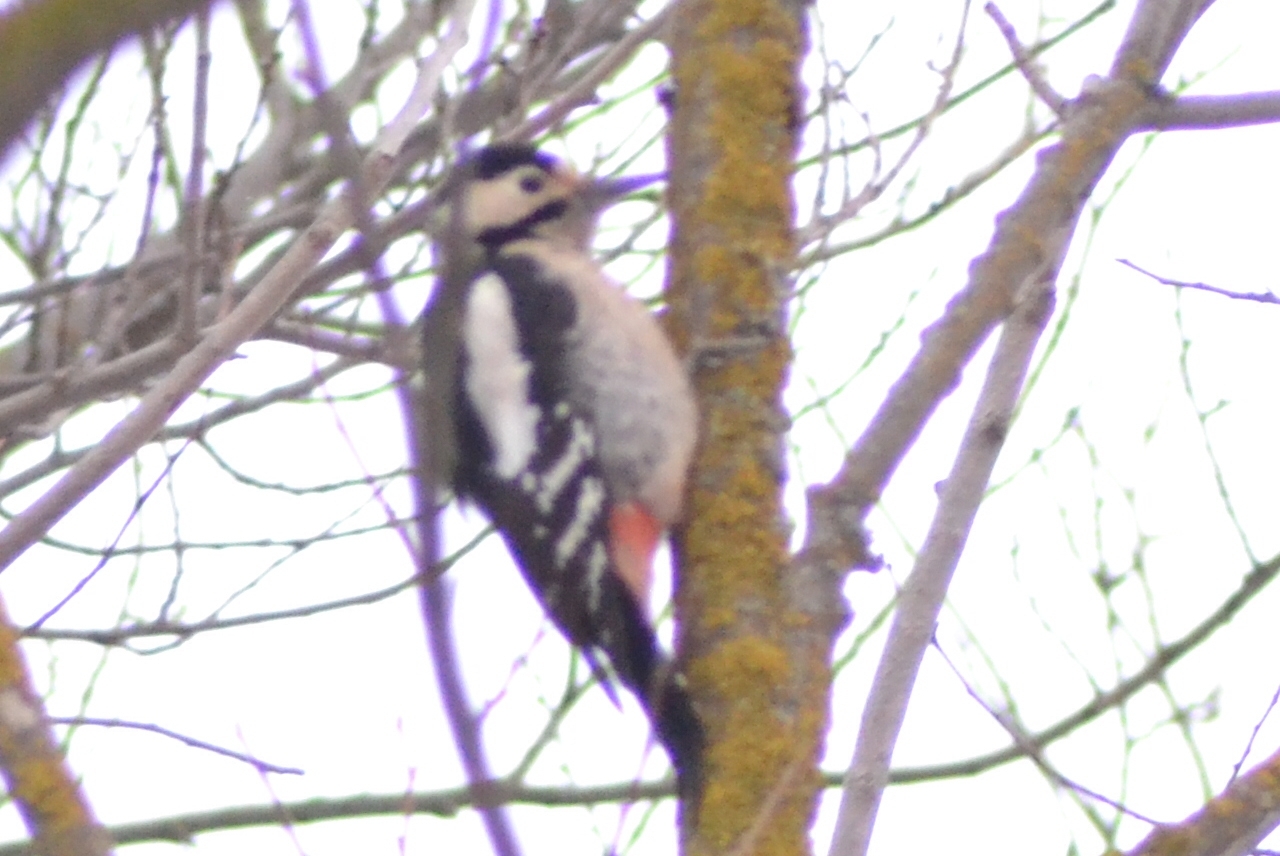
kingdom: Animalia
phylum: Chordata
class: Aves
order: Piciformes
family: Picidae
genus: Dendrocopos
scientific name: Dendrocopos syriacus
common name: Syrian woodpecker
